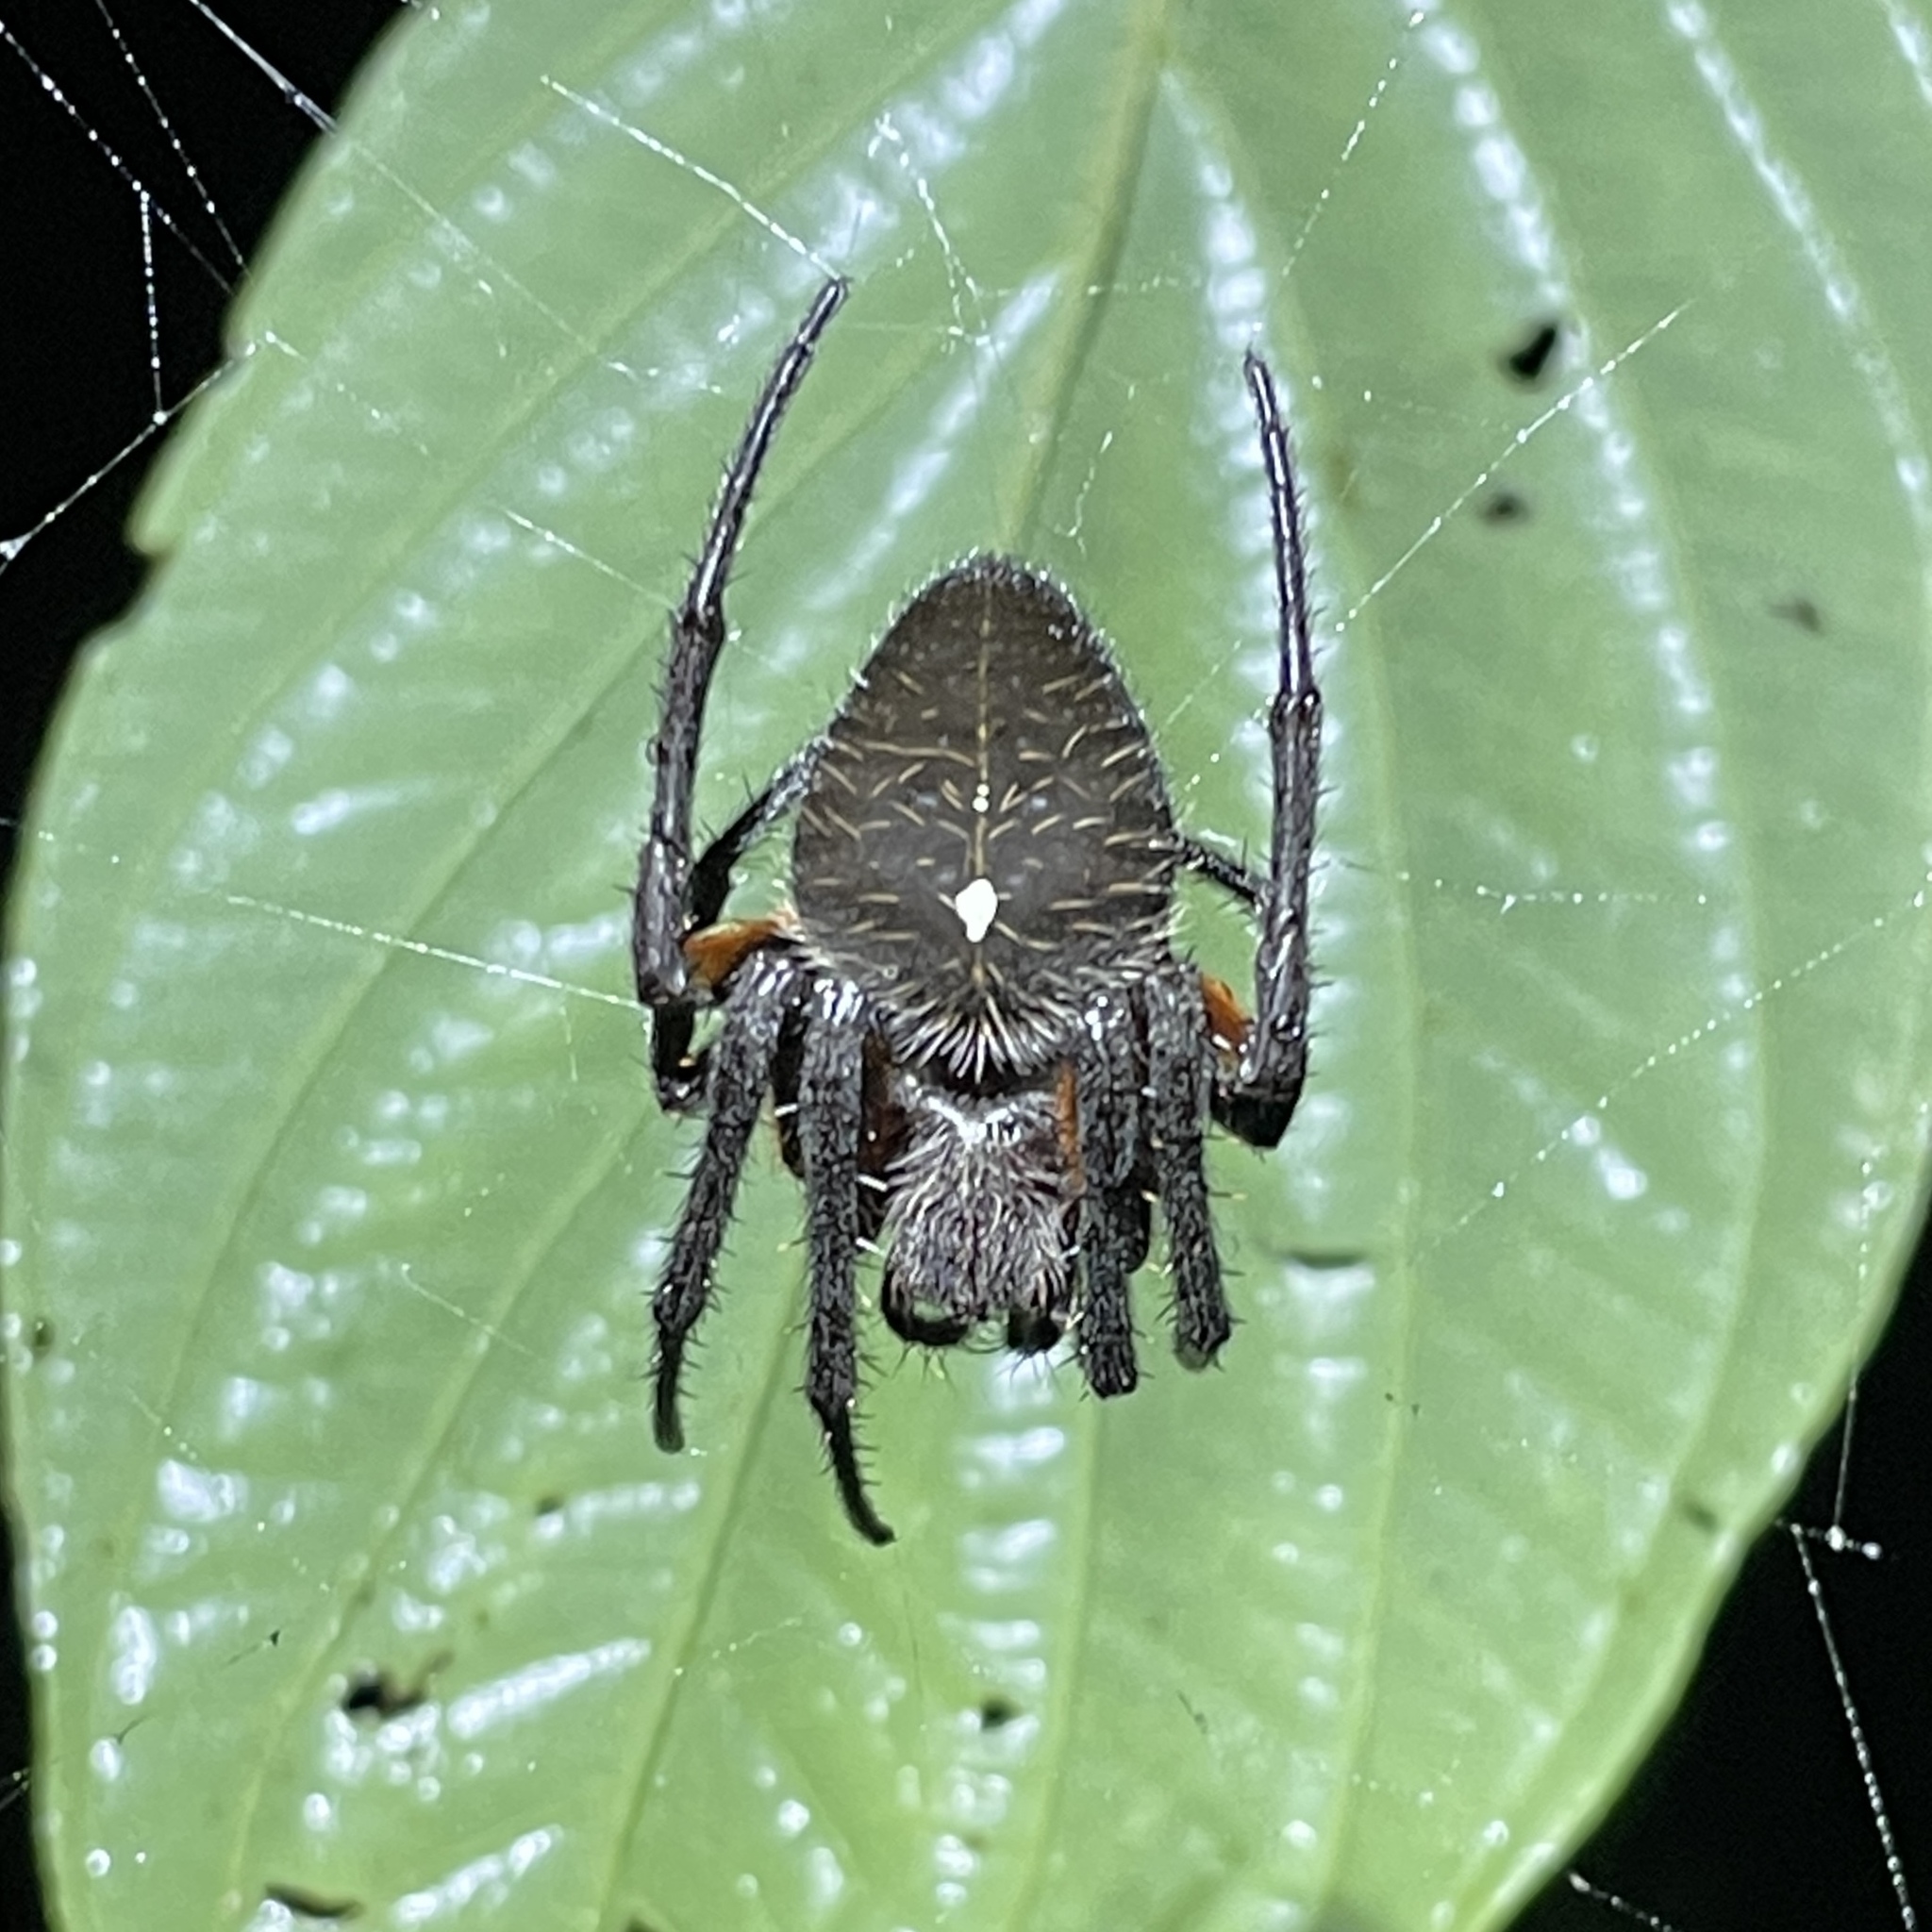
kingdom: Animalia
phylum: Arthropoda
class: Arachnida
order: Araneae
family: Araneidae
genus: Eriophora
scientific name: Eriophora fuliginea
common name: Orb weavers
